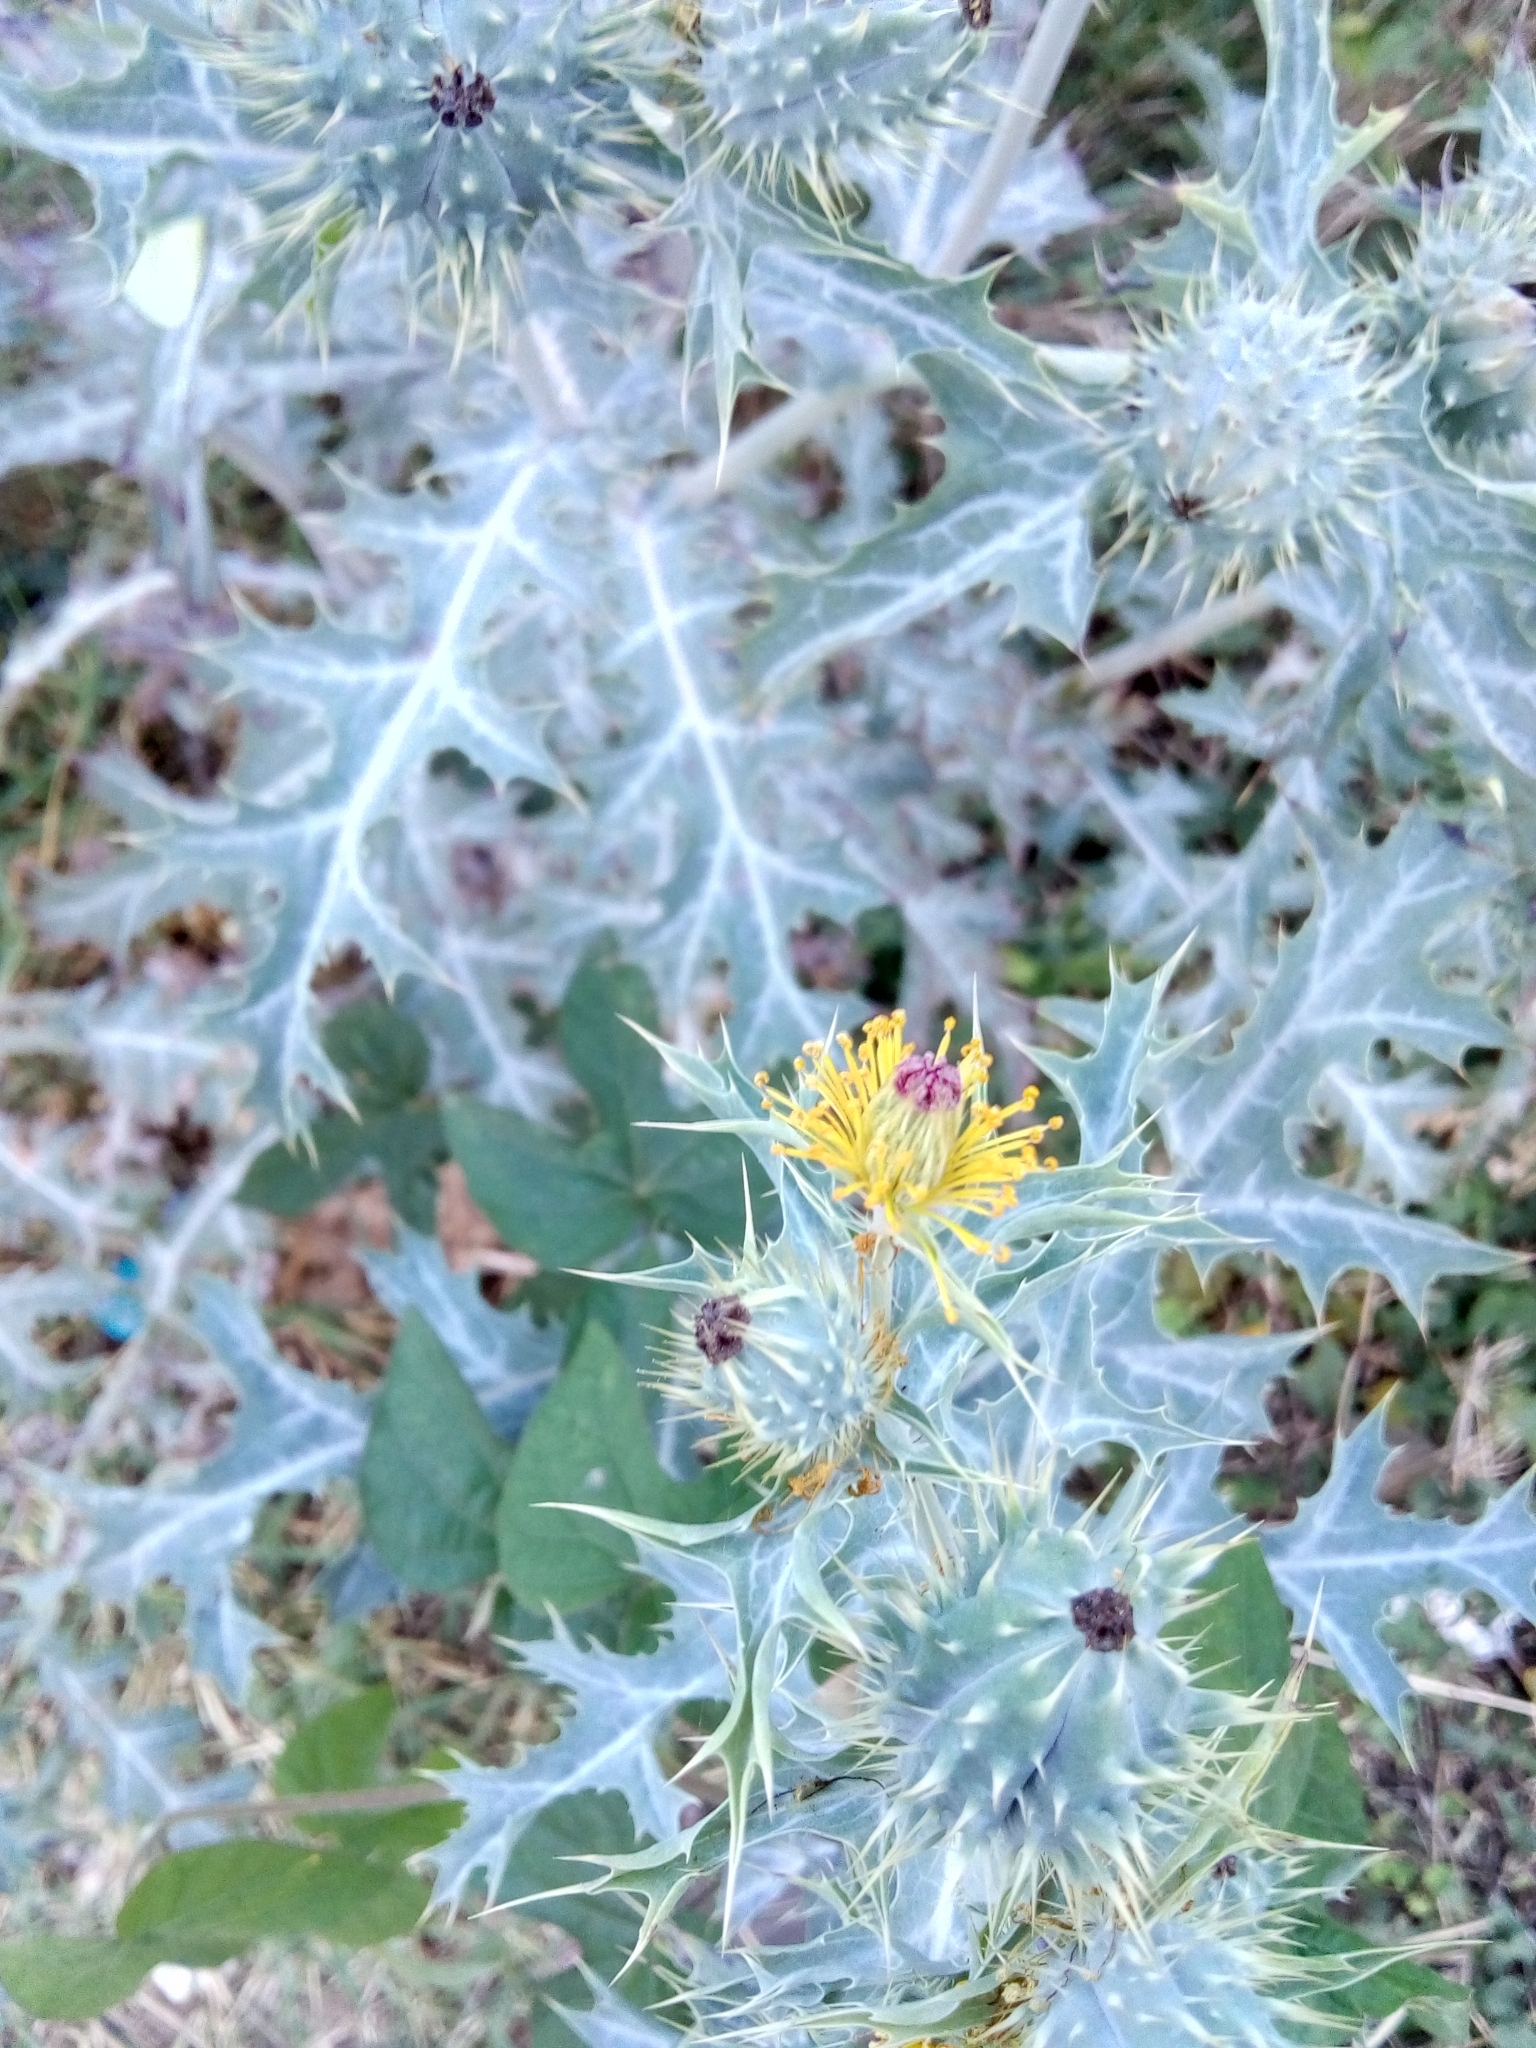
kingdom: Plantae
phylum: Tracheophyta
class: Magnoliopsida
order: Ranunculales
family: Papaveraceae
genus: Argemone
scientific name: Argemone ochroleuca
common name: White-flower mexican-poppy
